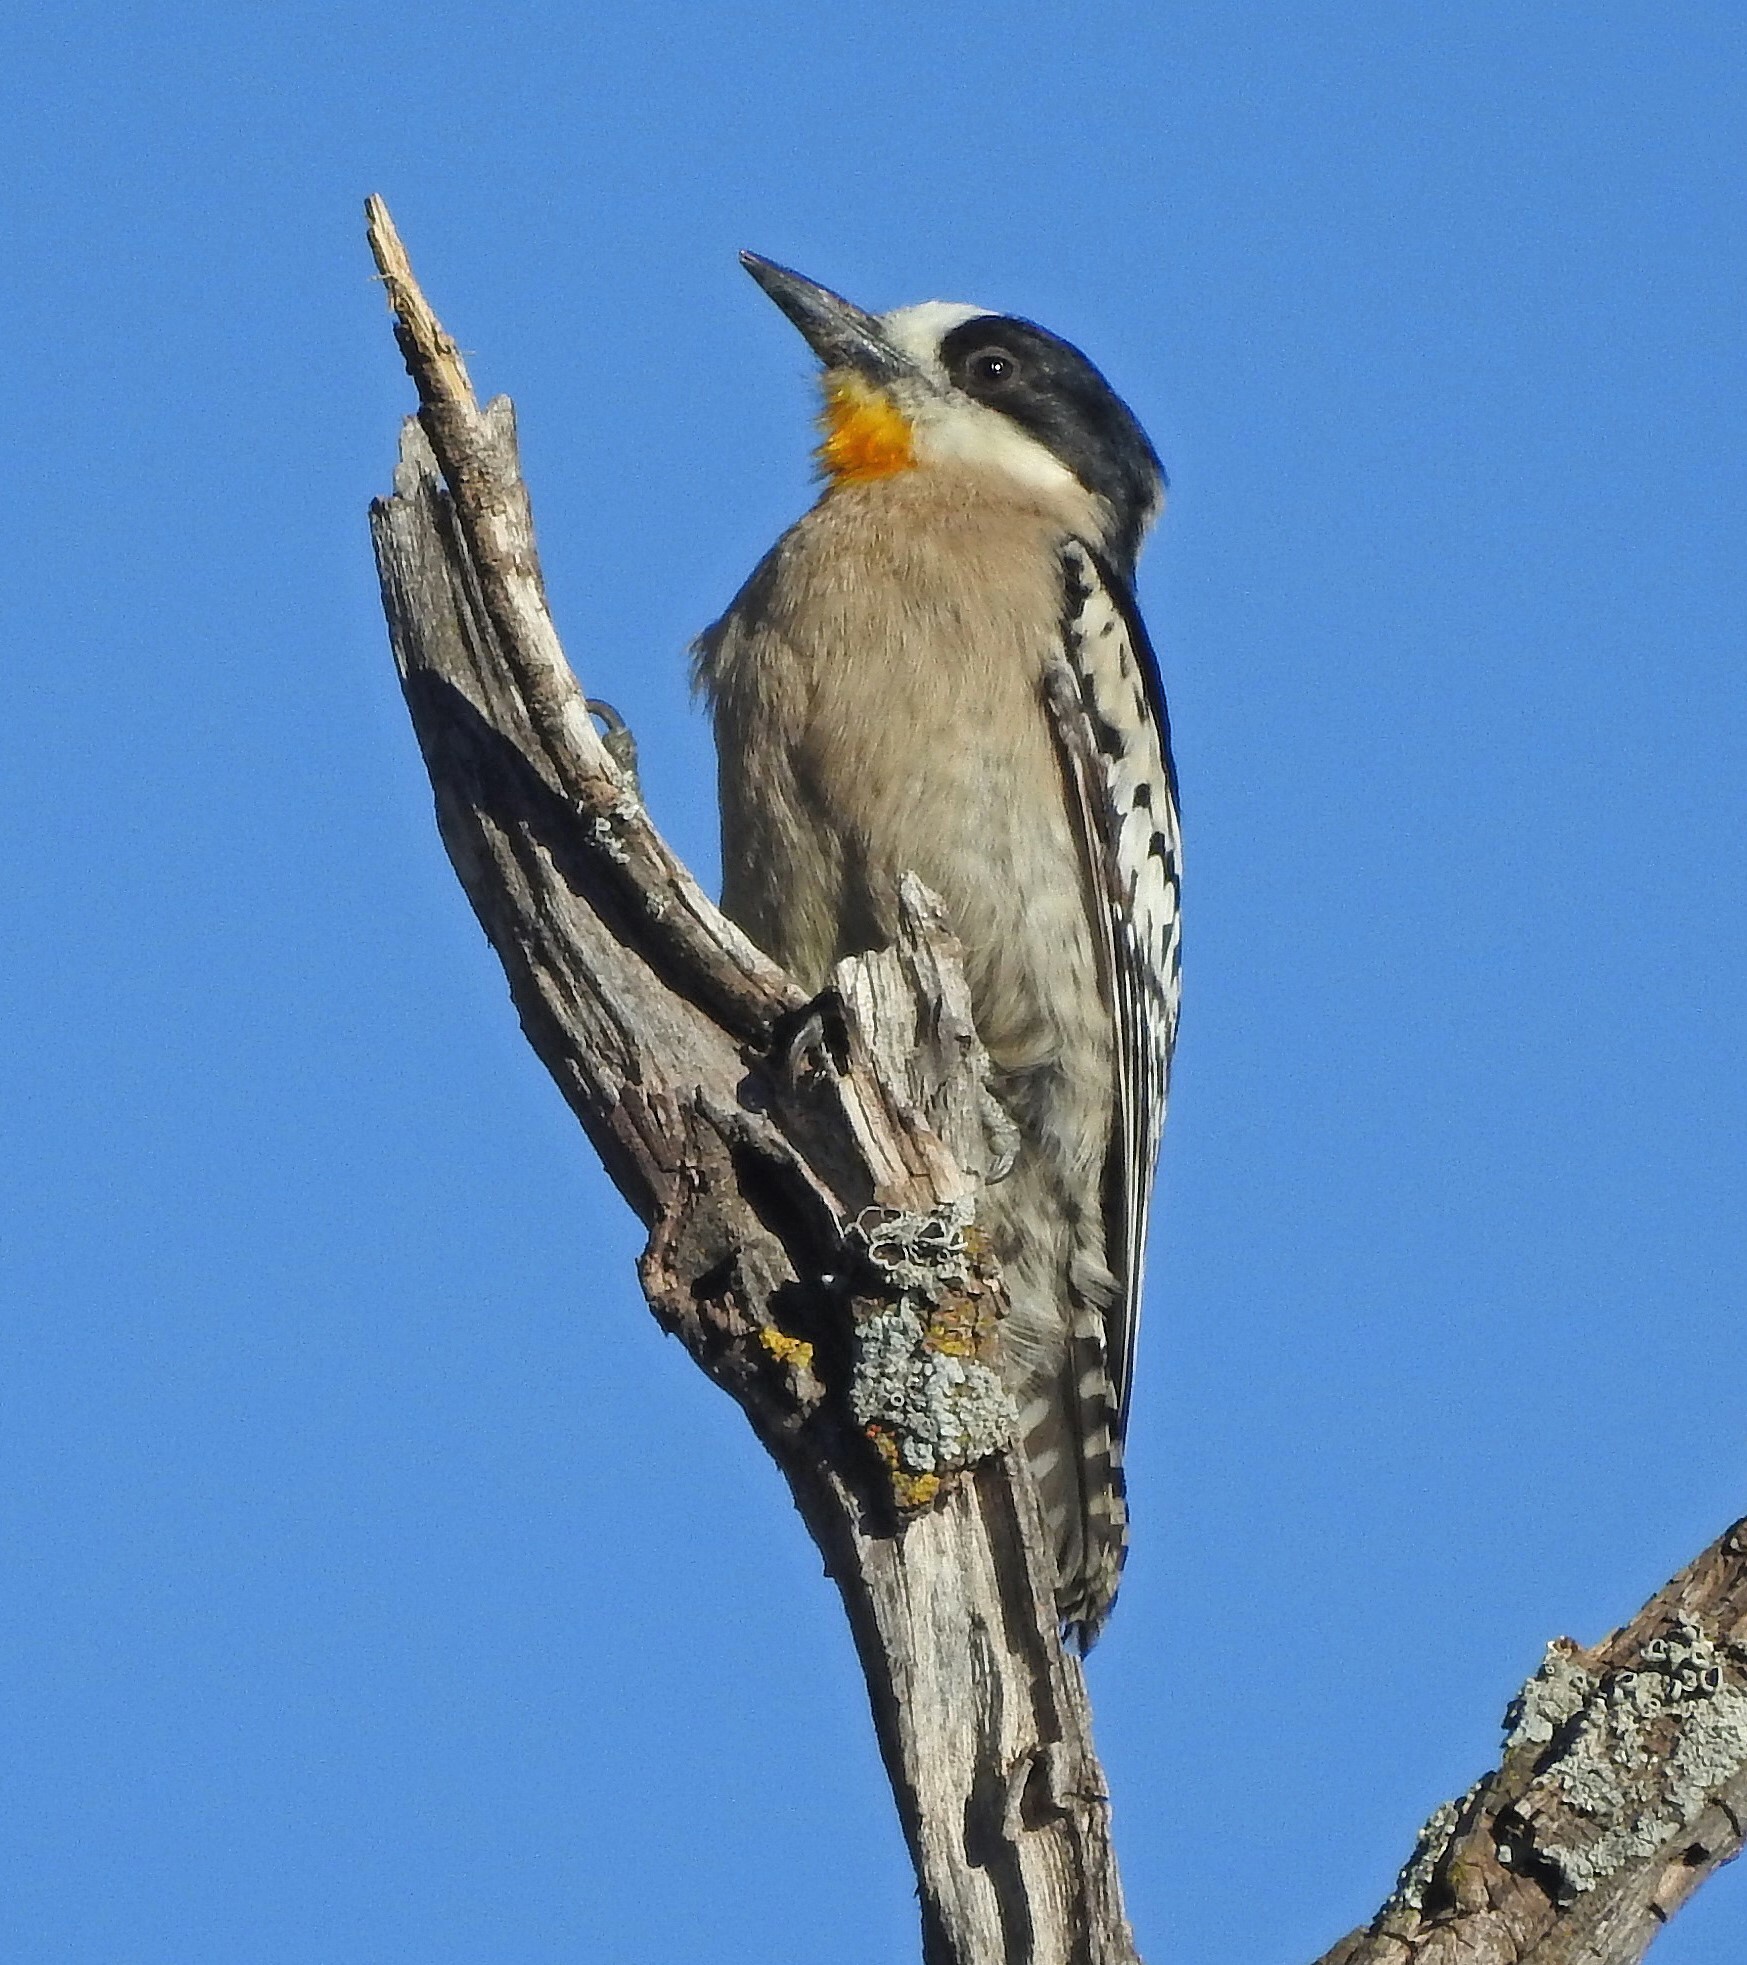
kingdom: Animalia
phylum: Chordata
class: Aves
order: Piciformes
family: Picidae
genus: Melanerpes
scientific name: Melanerpes cactorum
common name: White-fronted woodpecker
